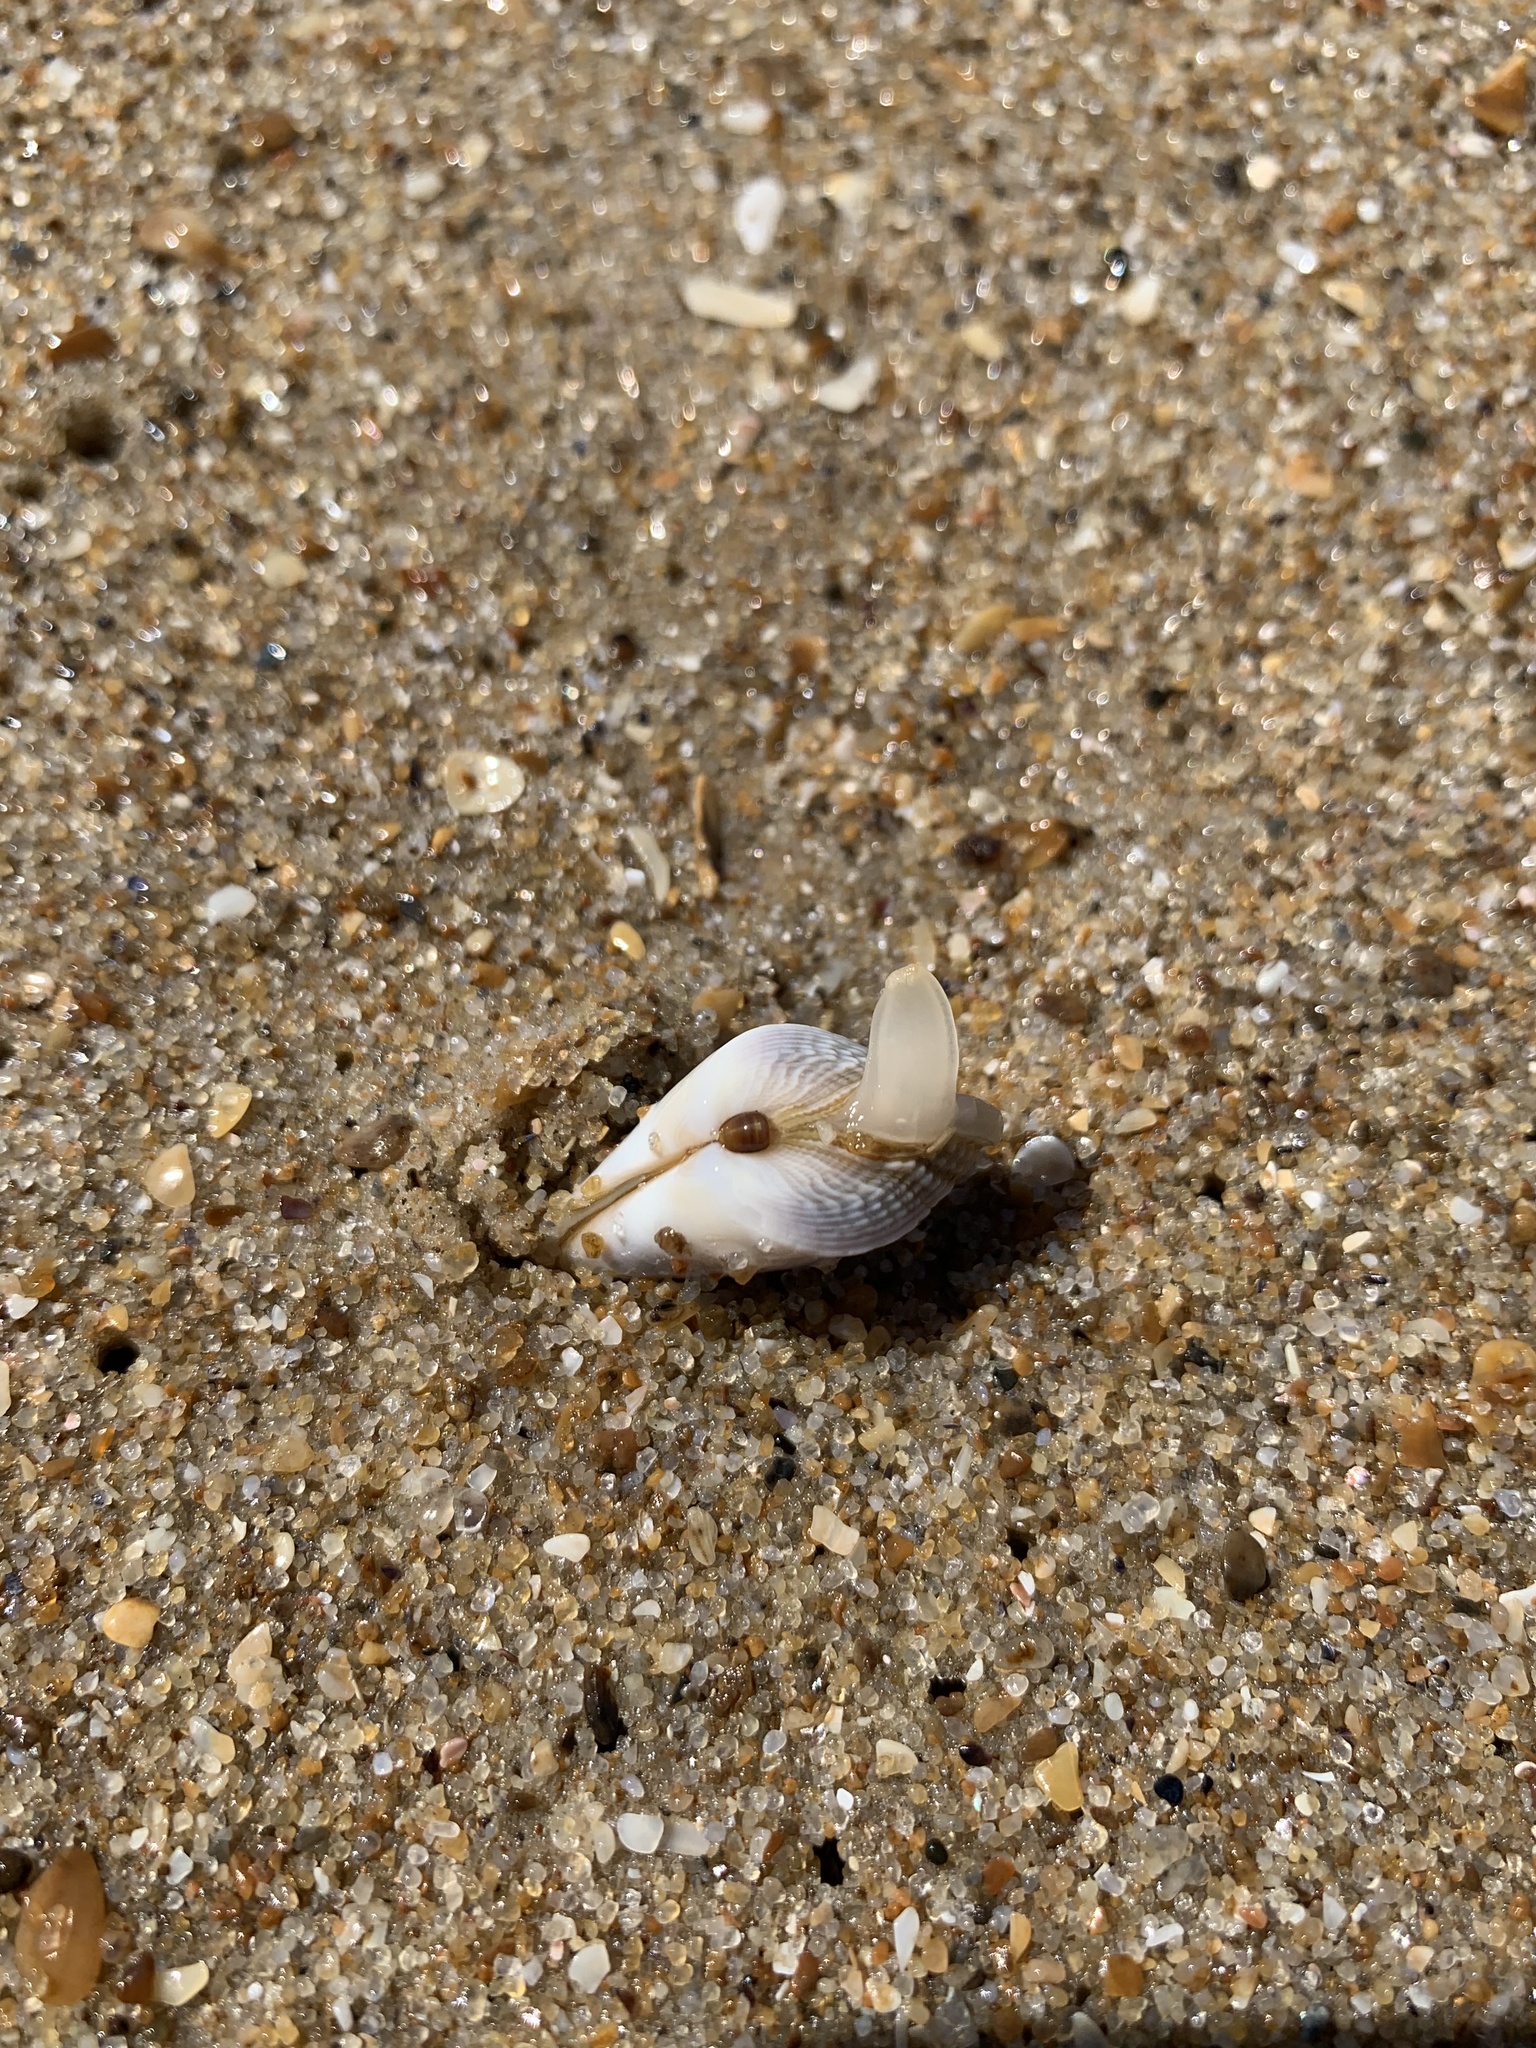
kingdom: Animalia
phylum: Mollusca
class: Bivalvia
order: Cardiida
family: Donacidae
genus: Donax
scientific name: Donax hanleyanus
